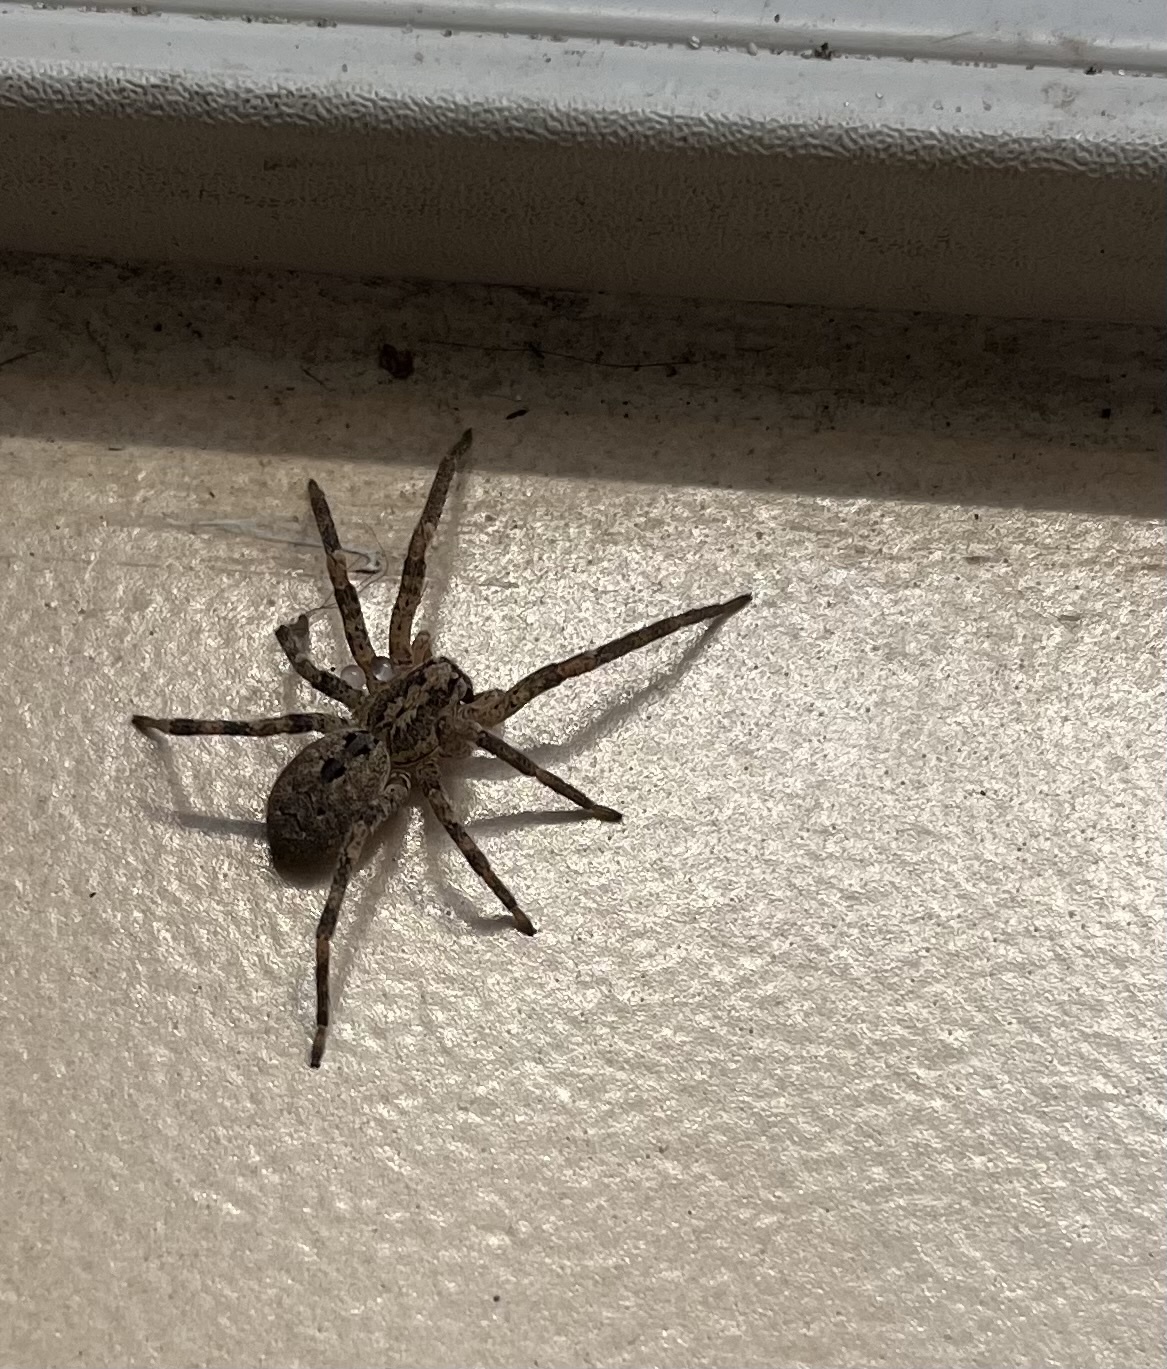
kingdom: Animalia
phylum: Arthropoda
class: Arachnida
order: Araneae
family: Zoropsidae
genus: Zoropsis
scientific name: Zoropsis spinimana
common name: Zoropsid spider
